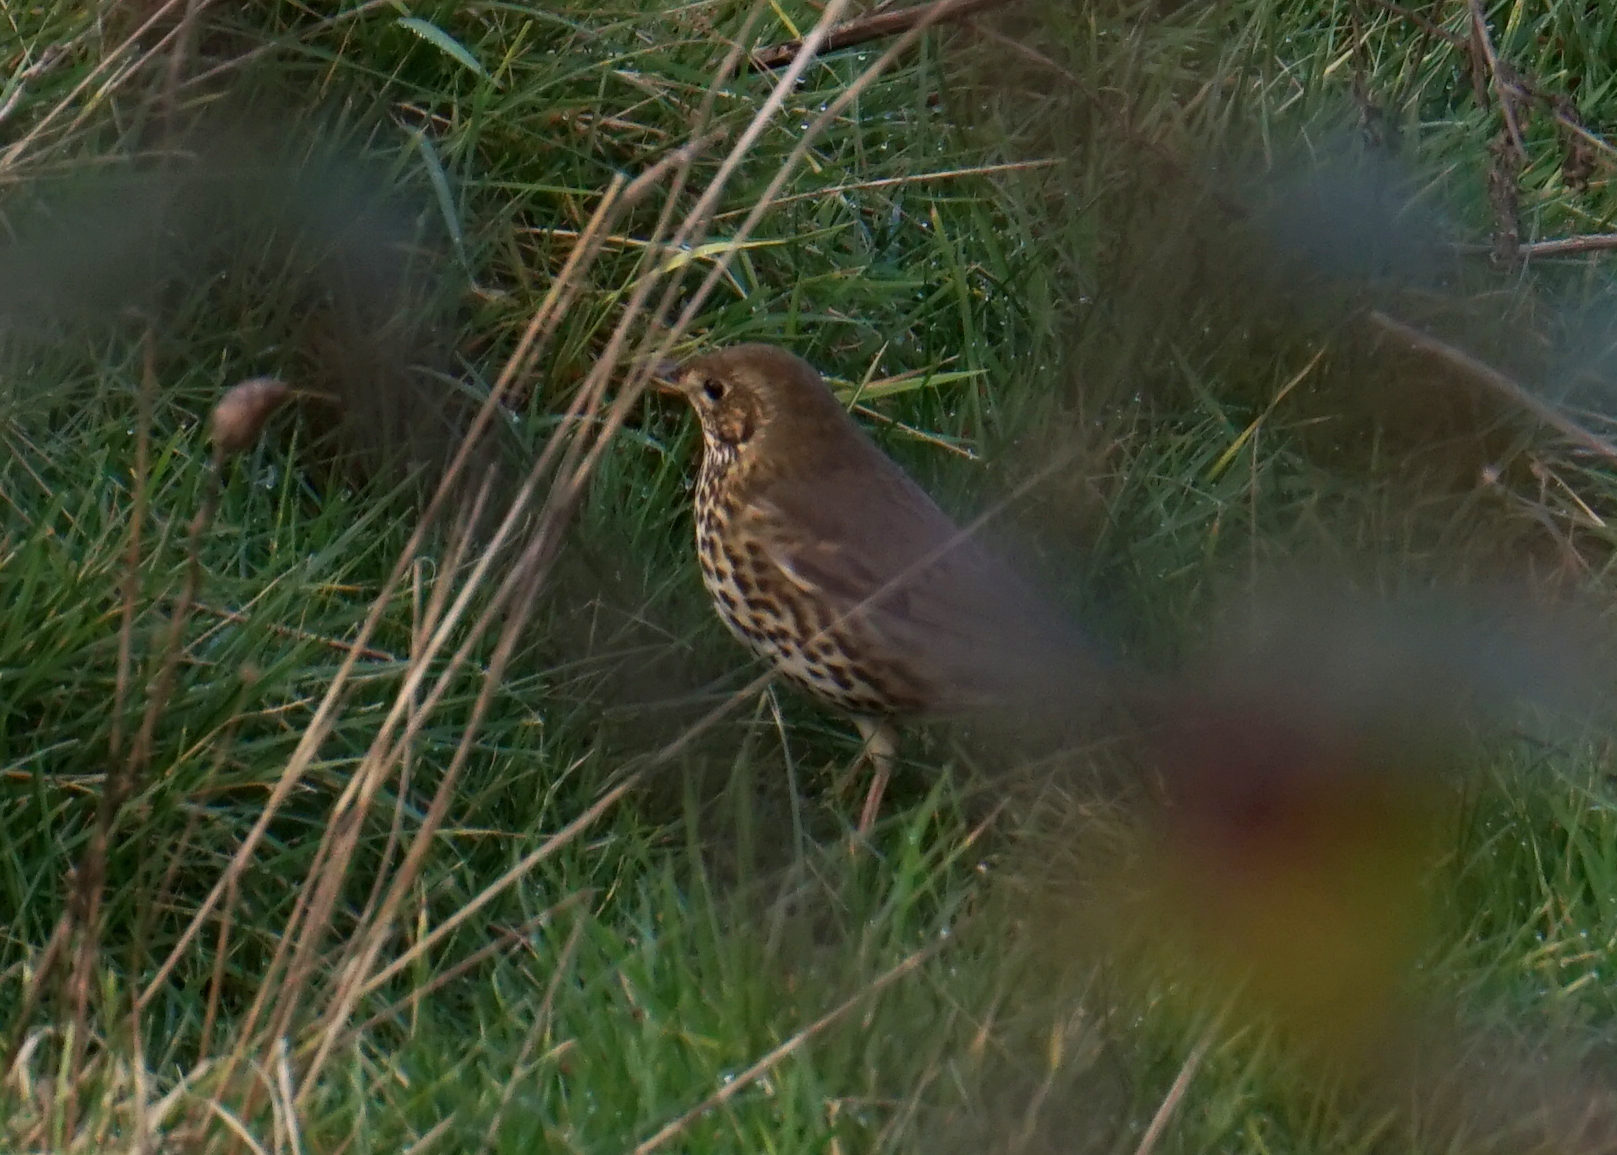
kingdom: Animalia
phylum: Chordata
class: Aves
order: Passeriformes
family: Turdidae
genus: Turdus
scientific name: Turdus philomelos
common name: Song thrush
